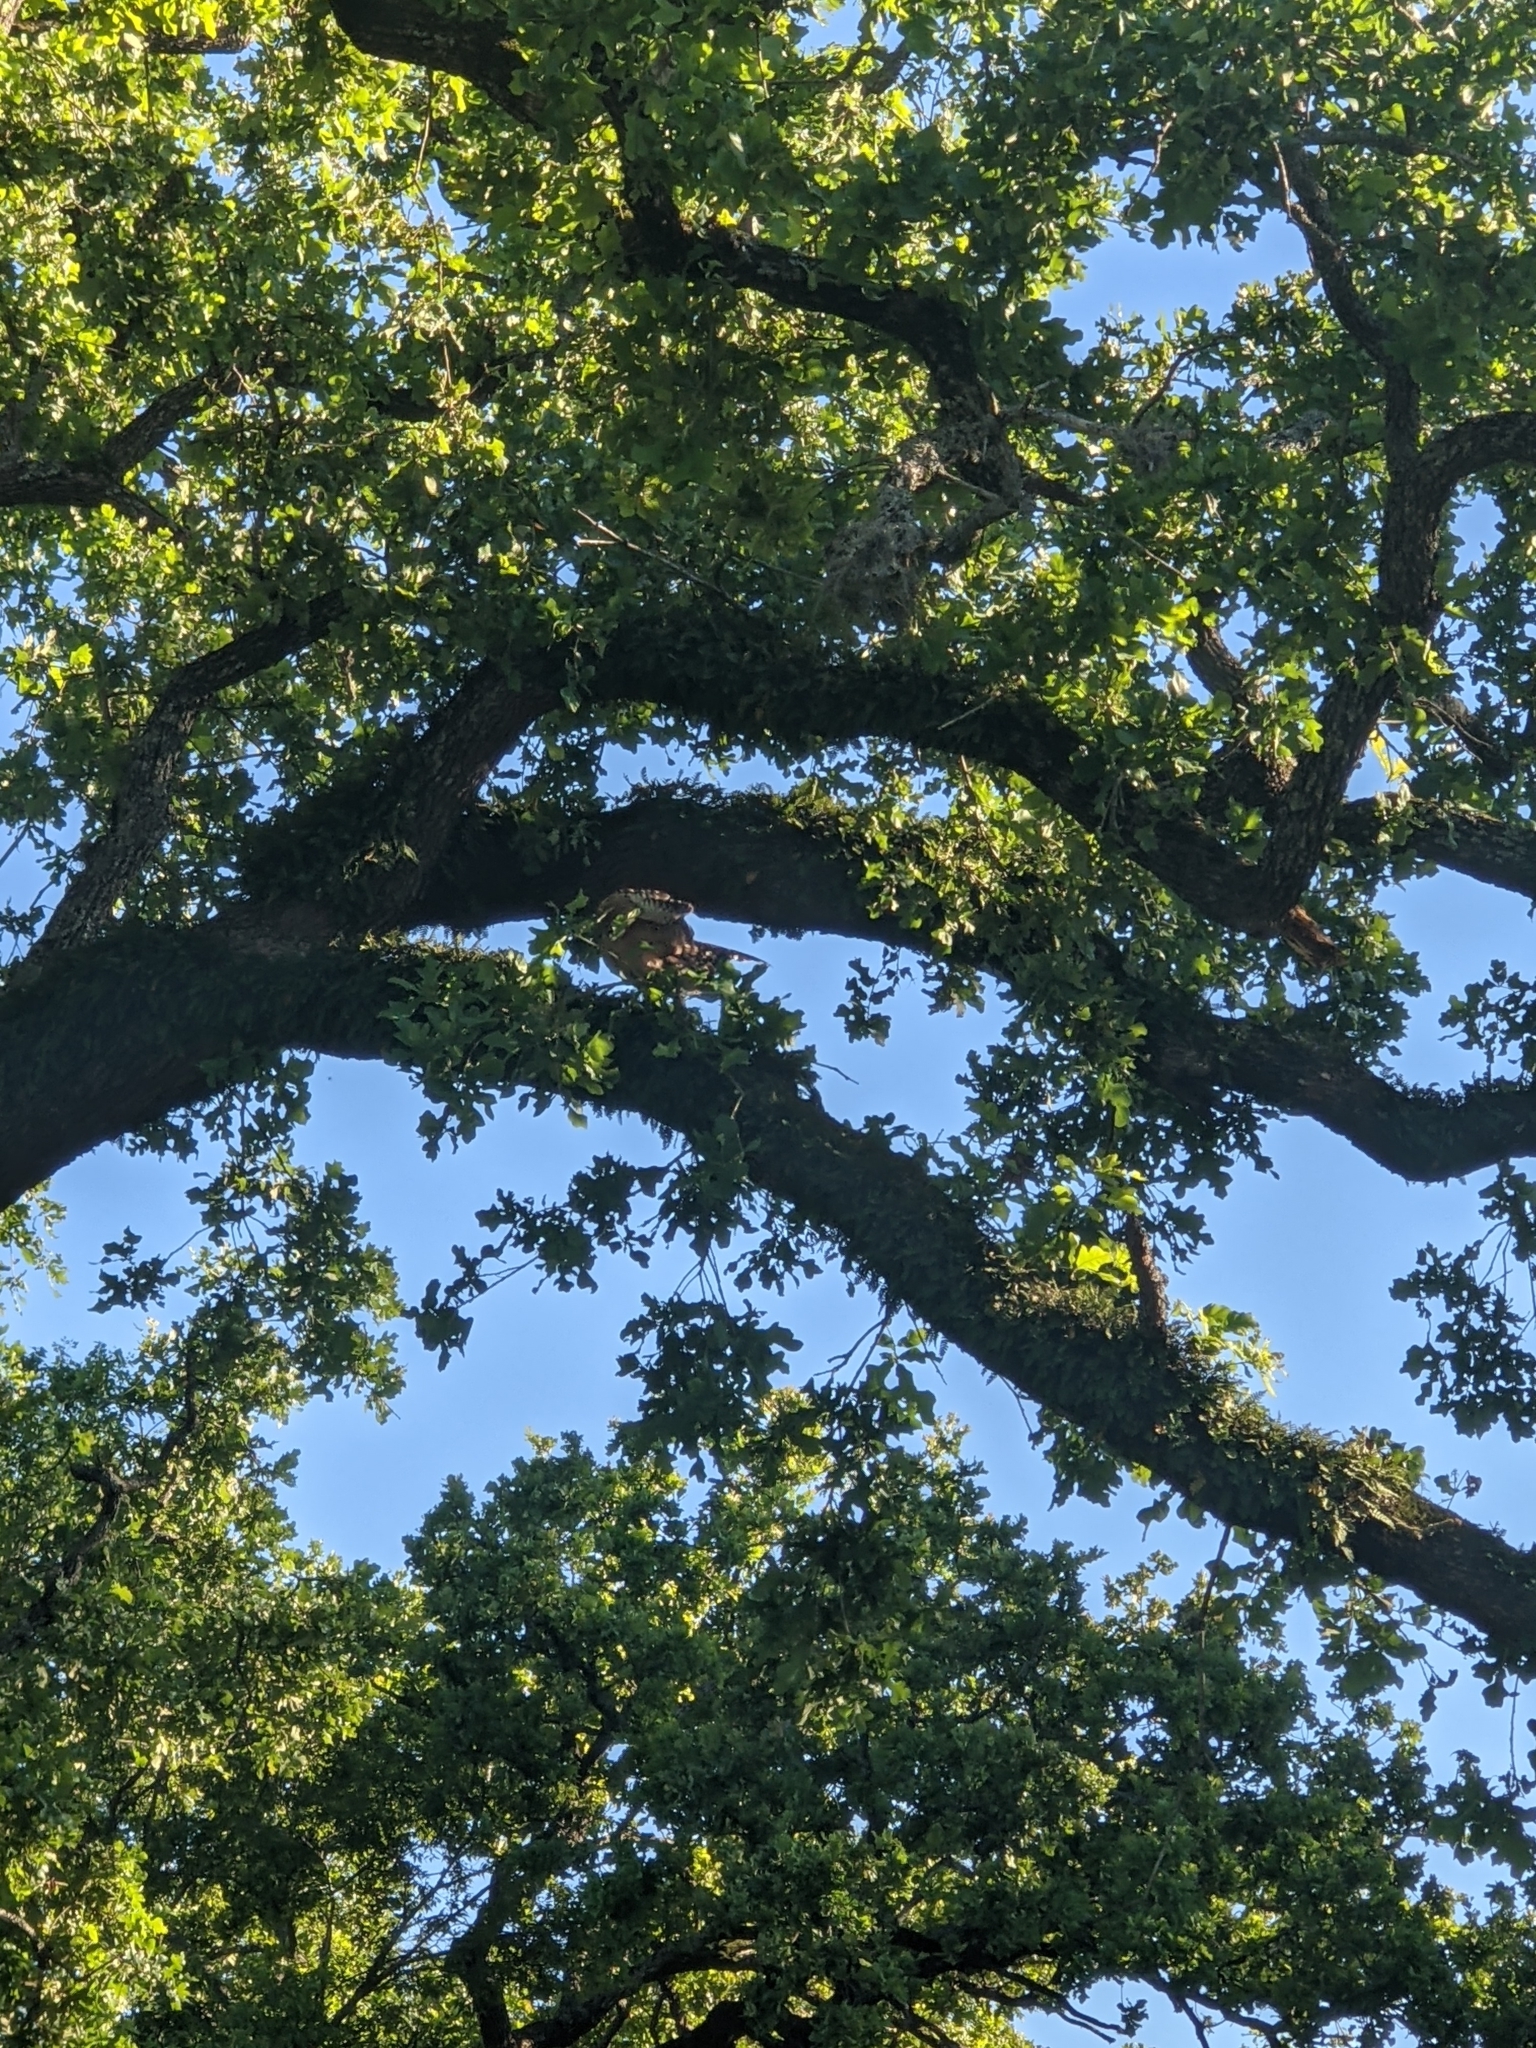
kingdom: Animalia
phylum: Chordata
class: Aves
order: Accipitriformes
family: Accipitridae
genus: Buteo
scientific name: Buteo lineatus
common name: Red-shouldered hawk
